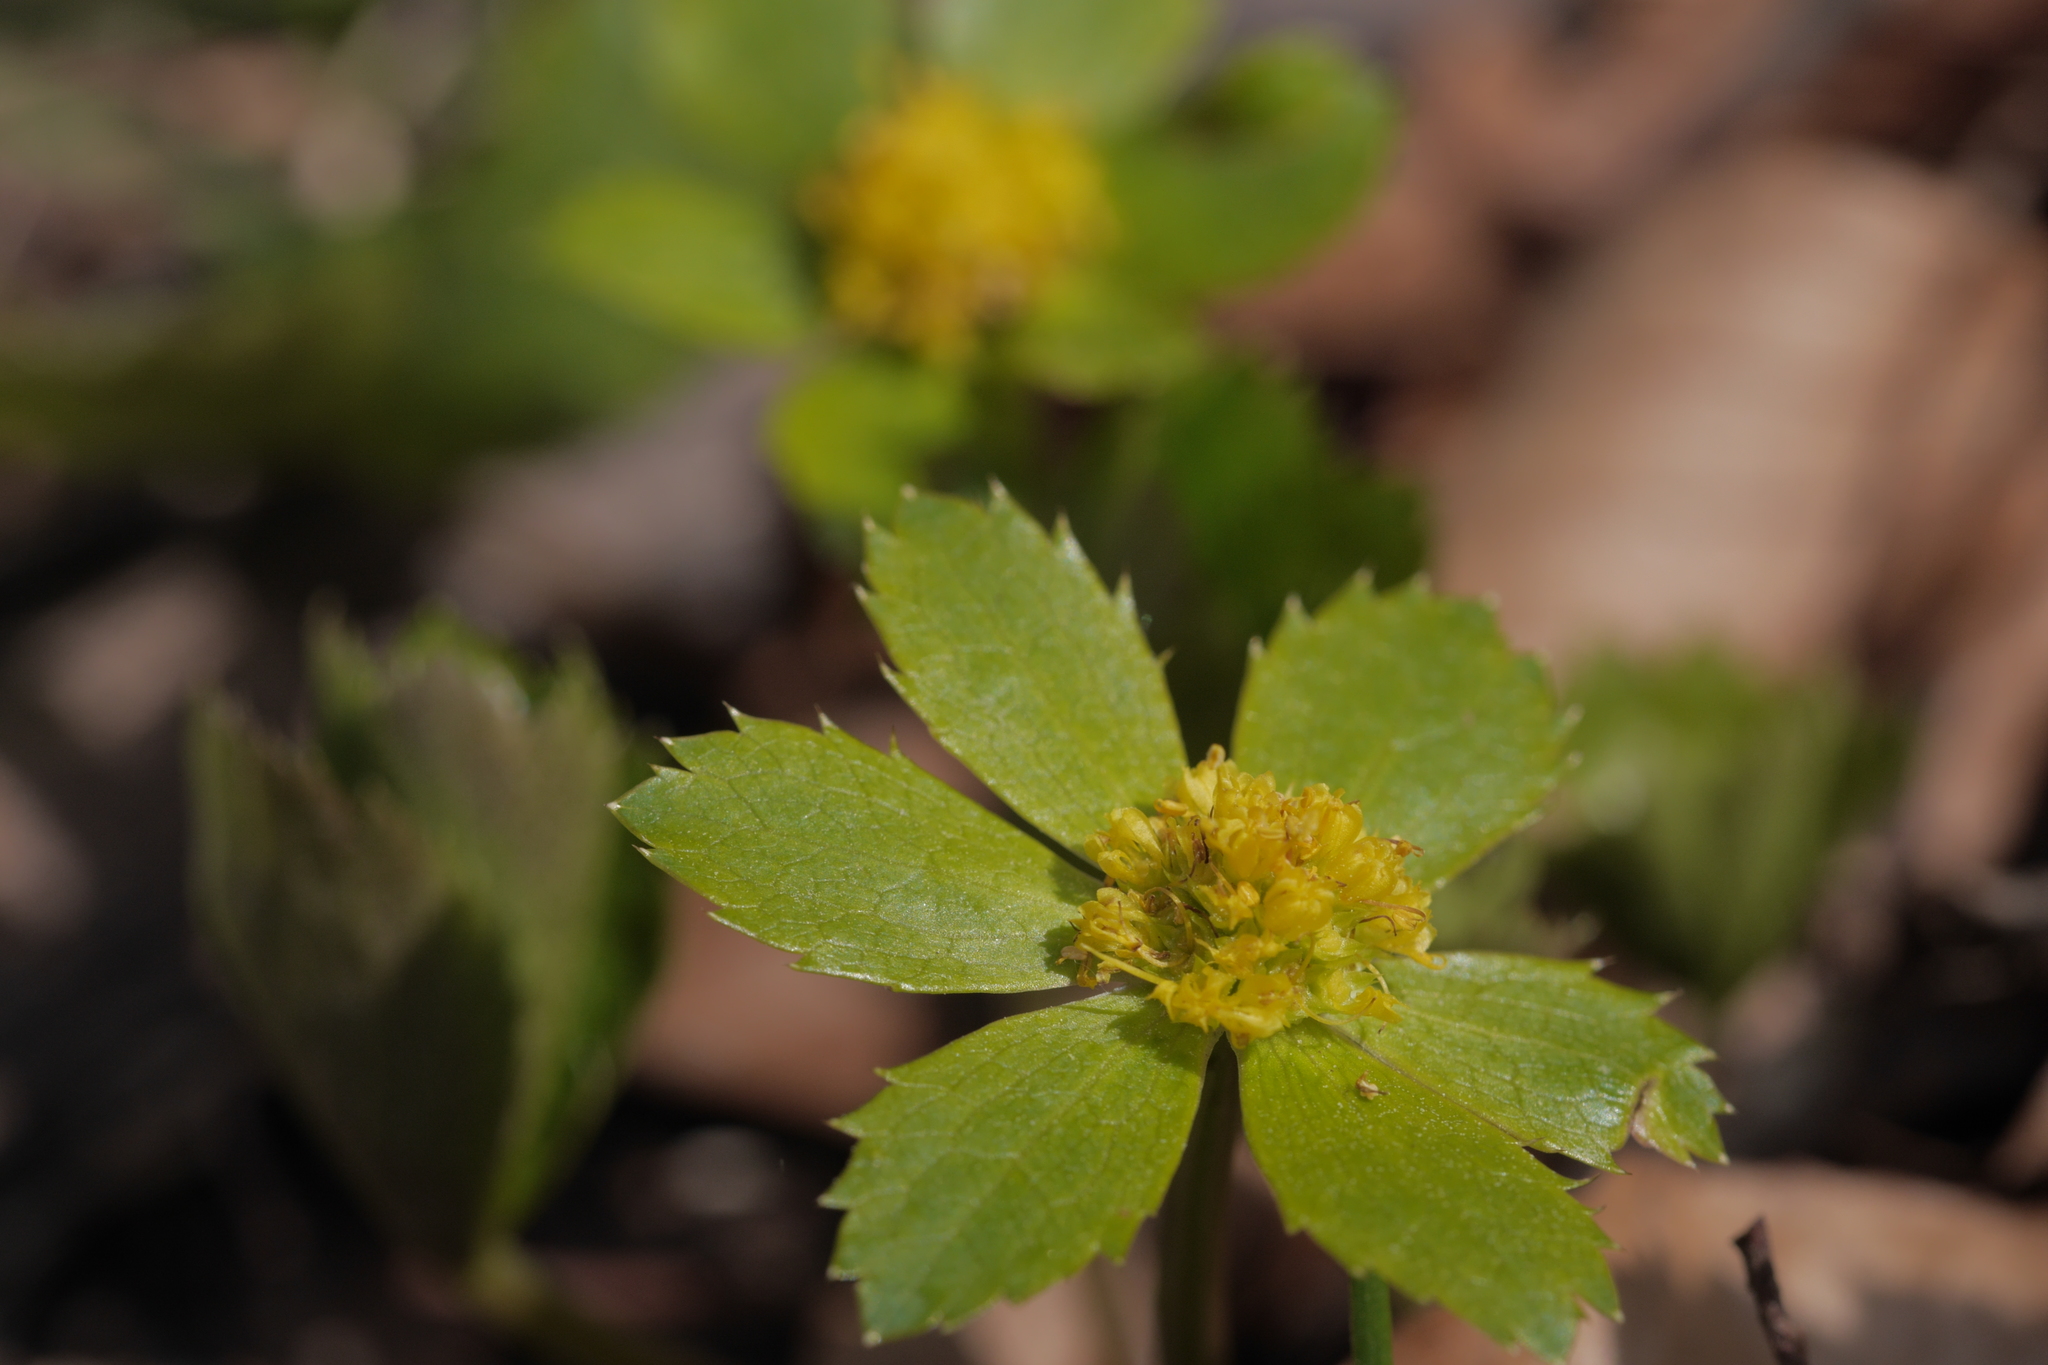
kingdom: Plantae
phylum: Tracheophyta
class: Magnoliopsida
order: Apiales
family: Apiaceae
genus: Sanicula
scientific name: Sanicula epipactis
